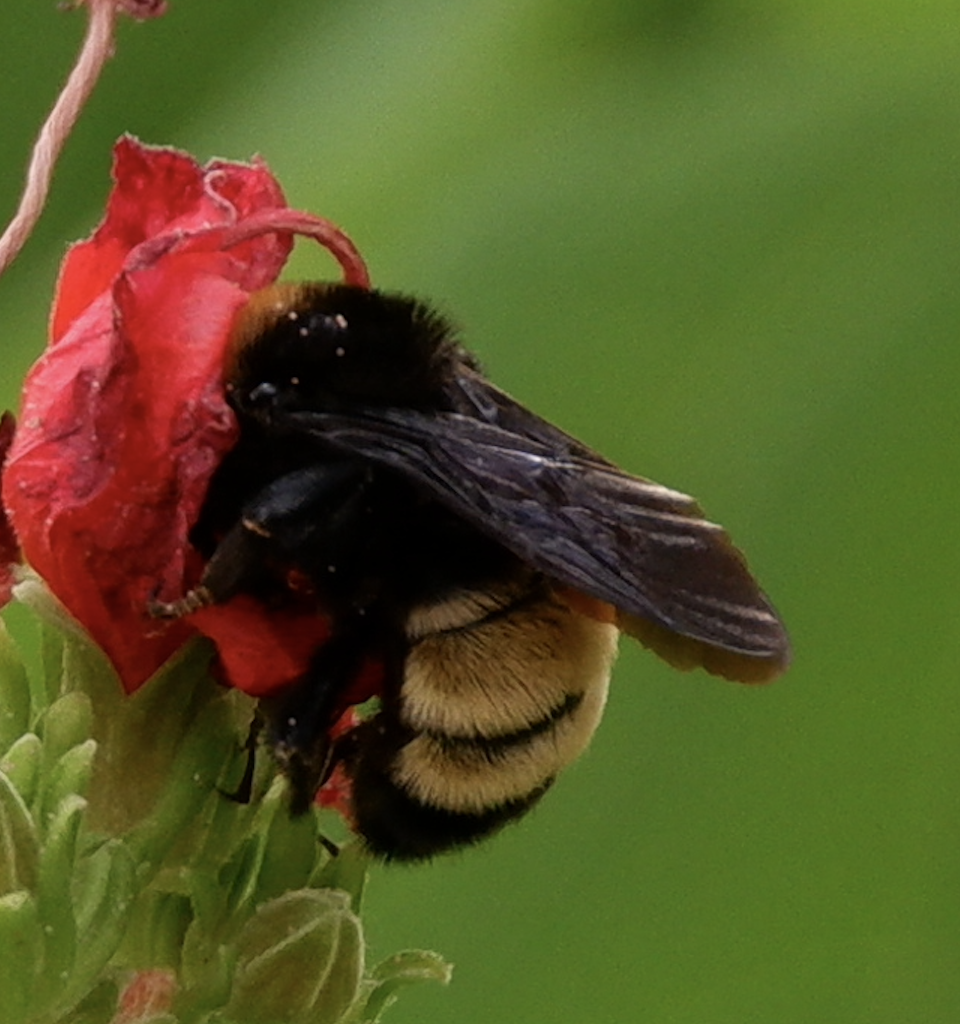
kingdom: Animalia
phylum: Arthropoda
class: Insecta
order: Hymenoptera
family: Apidae
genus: Bombus
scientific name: Bombus pensylvanicus
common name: Bumble bee
